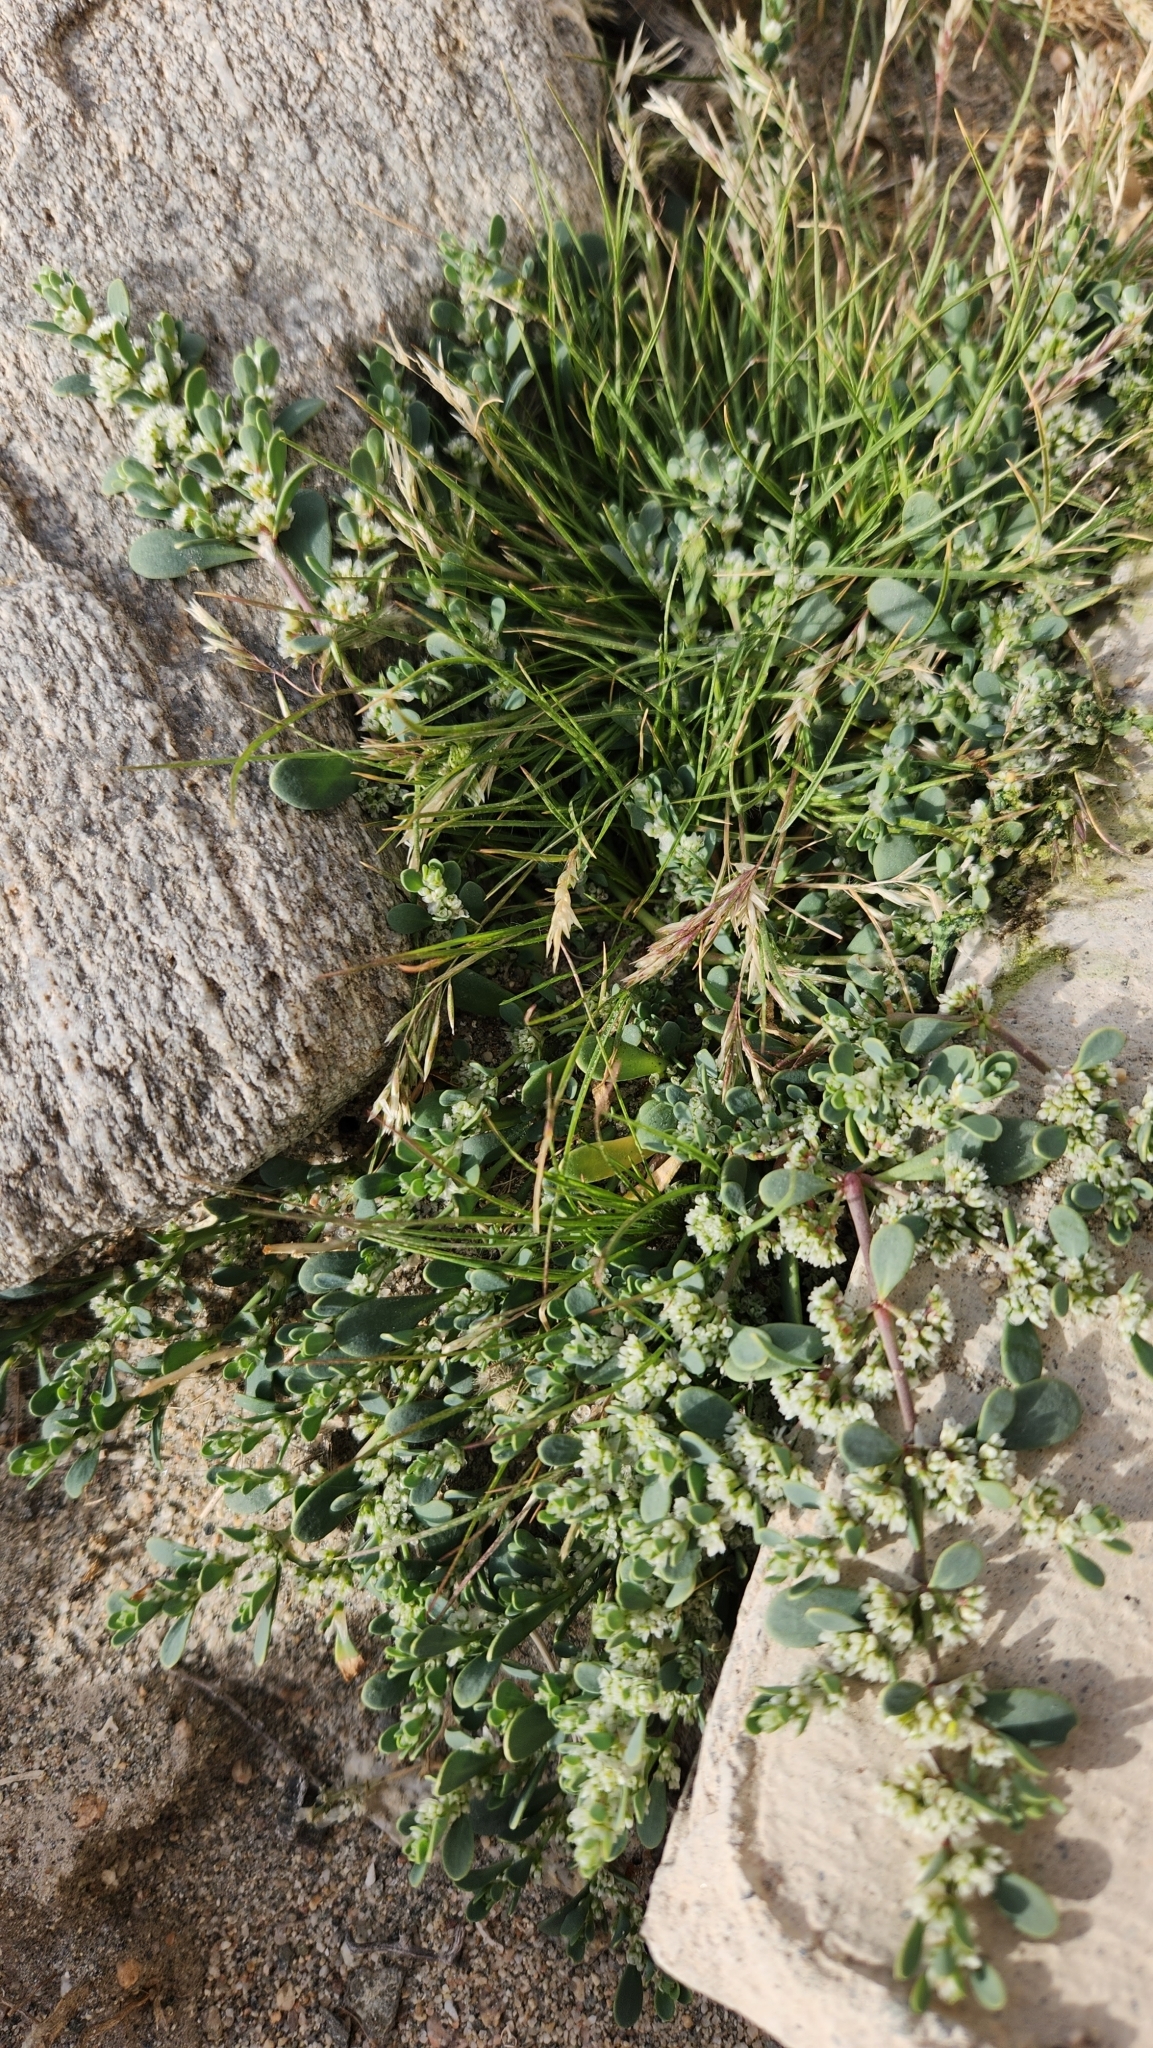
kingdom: Plantae
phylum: Tracheophyta
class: Magnoliopsida
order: Caryophyllales
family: Caryophyllaceae
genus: Achyronychia
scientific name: Achyronychia cooperi
